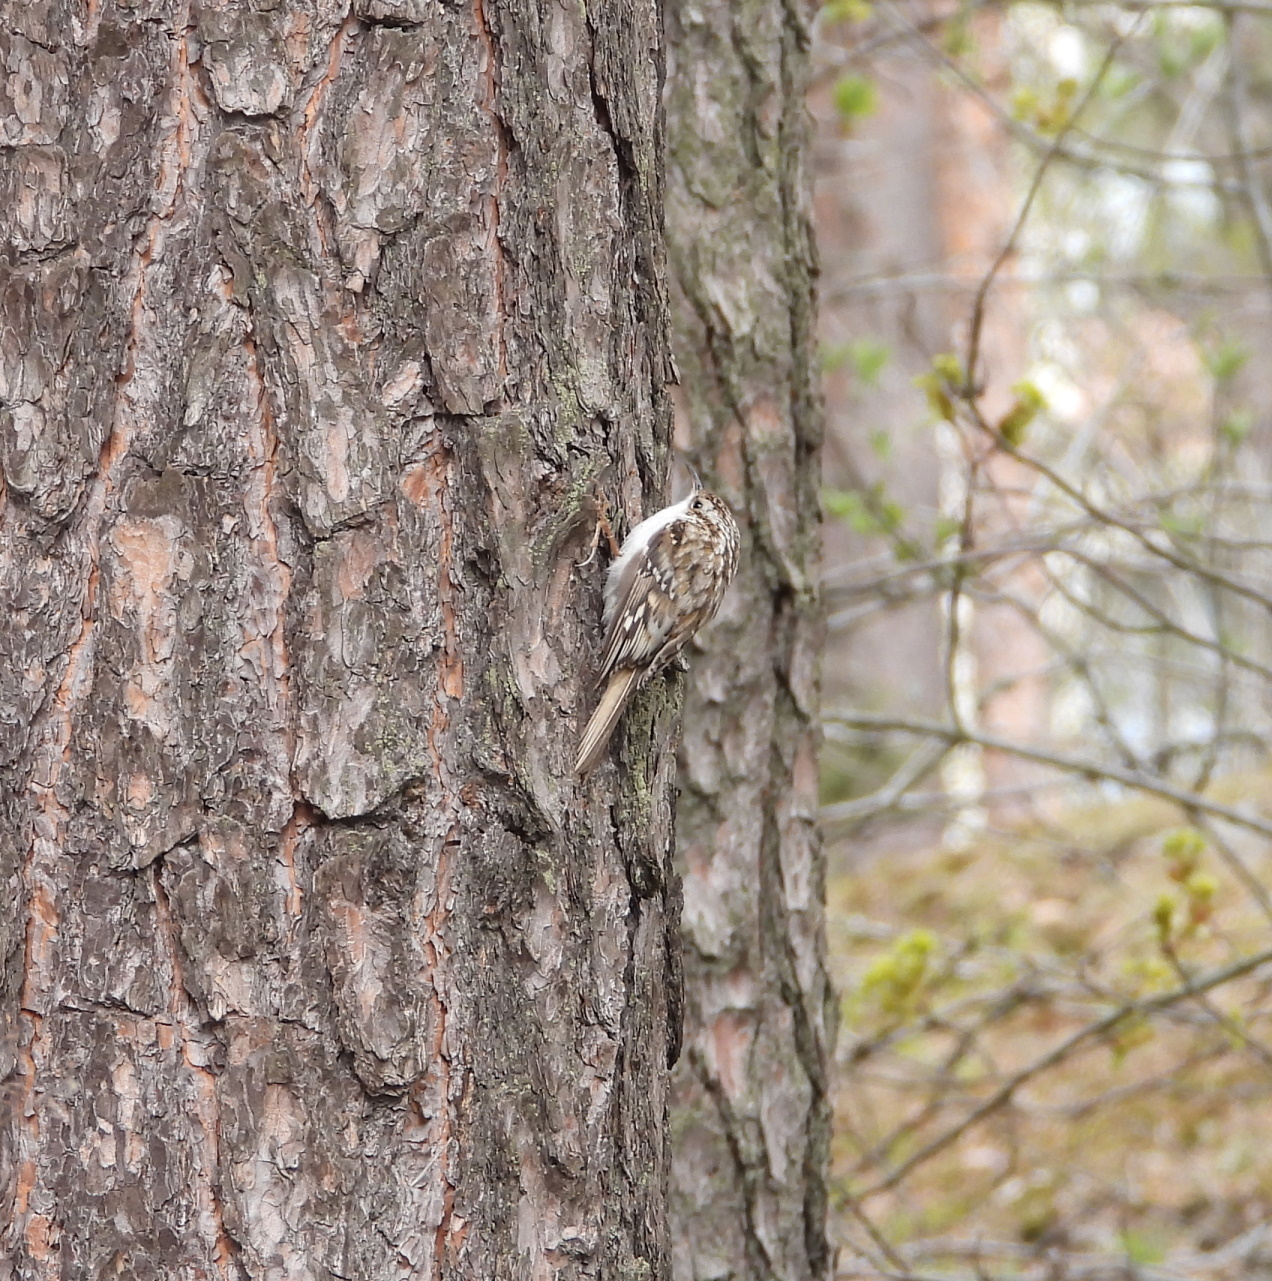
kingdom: Animalia
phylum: Chordata
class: Aves
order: Passeriformes
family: Certhiidae
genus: Certhia
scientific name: Certhia familiaris
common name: Eurasian treecreeper
